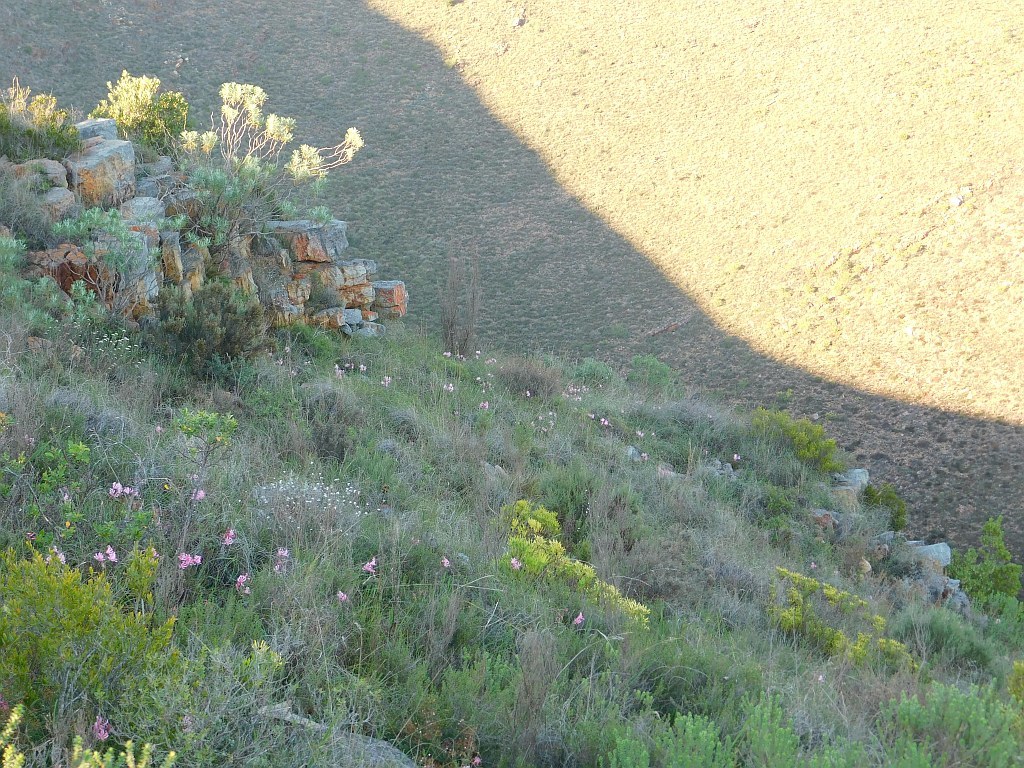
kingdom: Plantae
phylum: Tracheophyta
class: Liliopsida
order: Asparagales
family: Amaryllidaceae
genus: Nerine
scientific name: Nerine humilis
